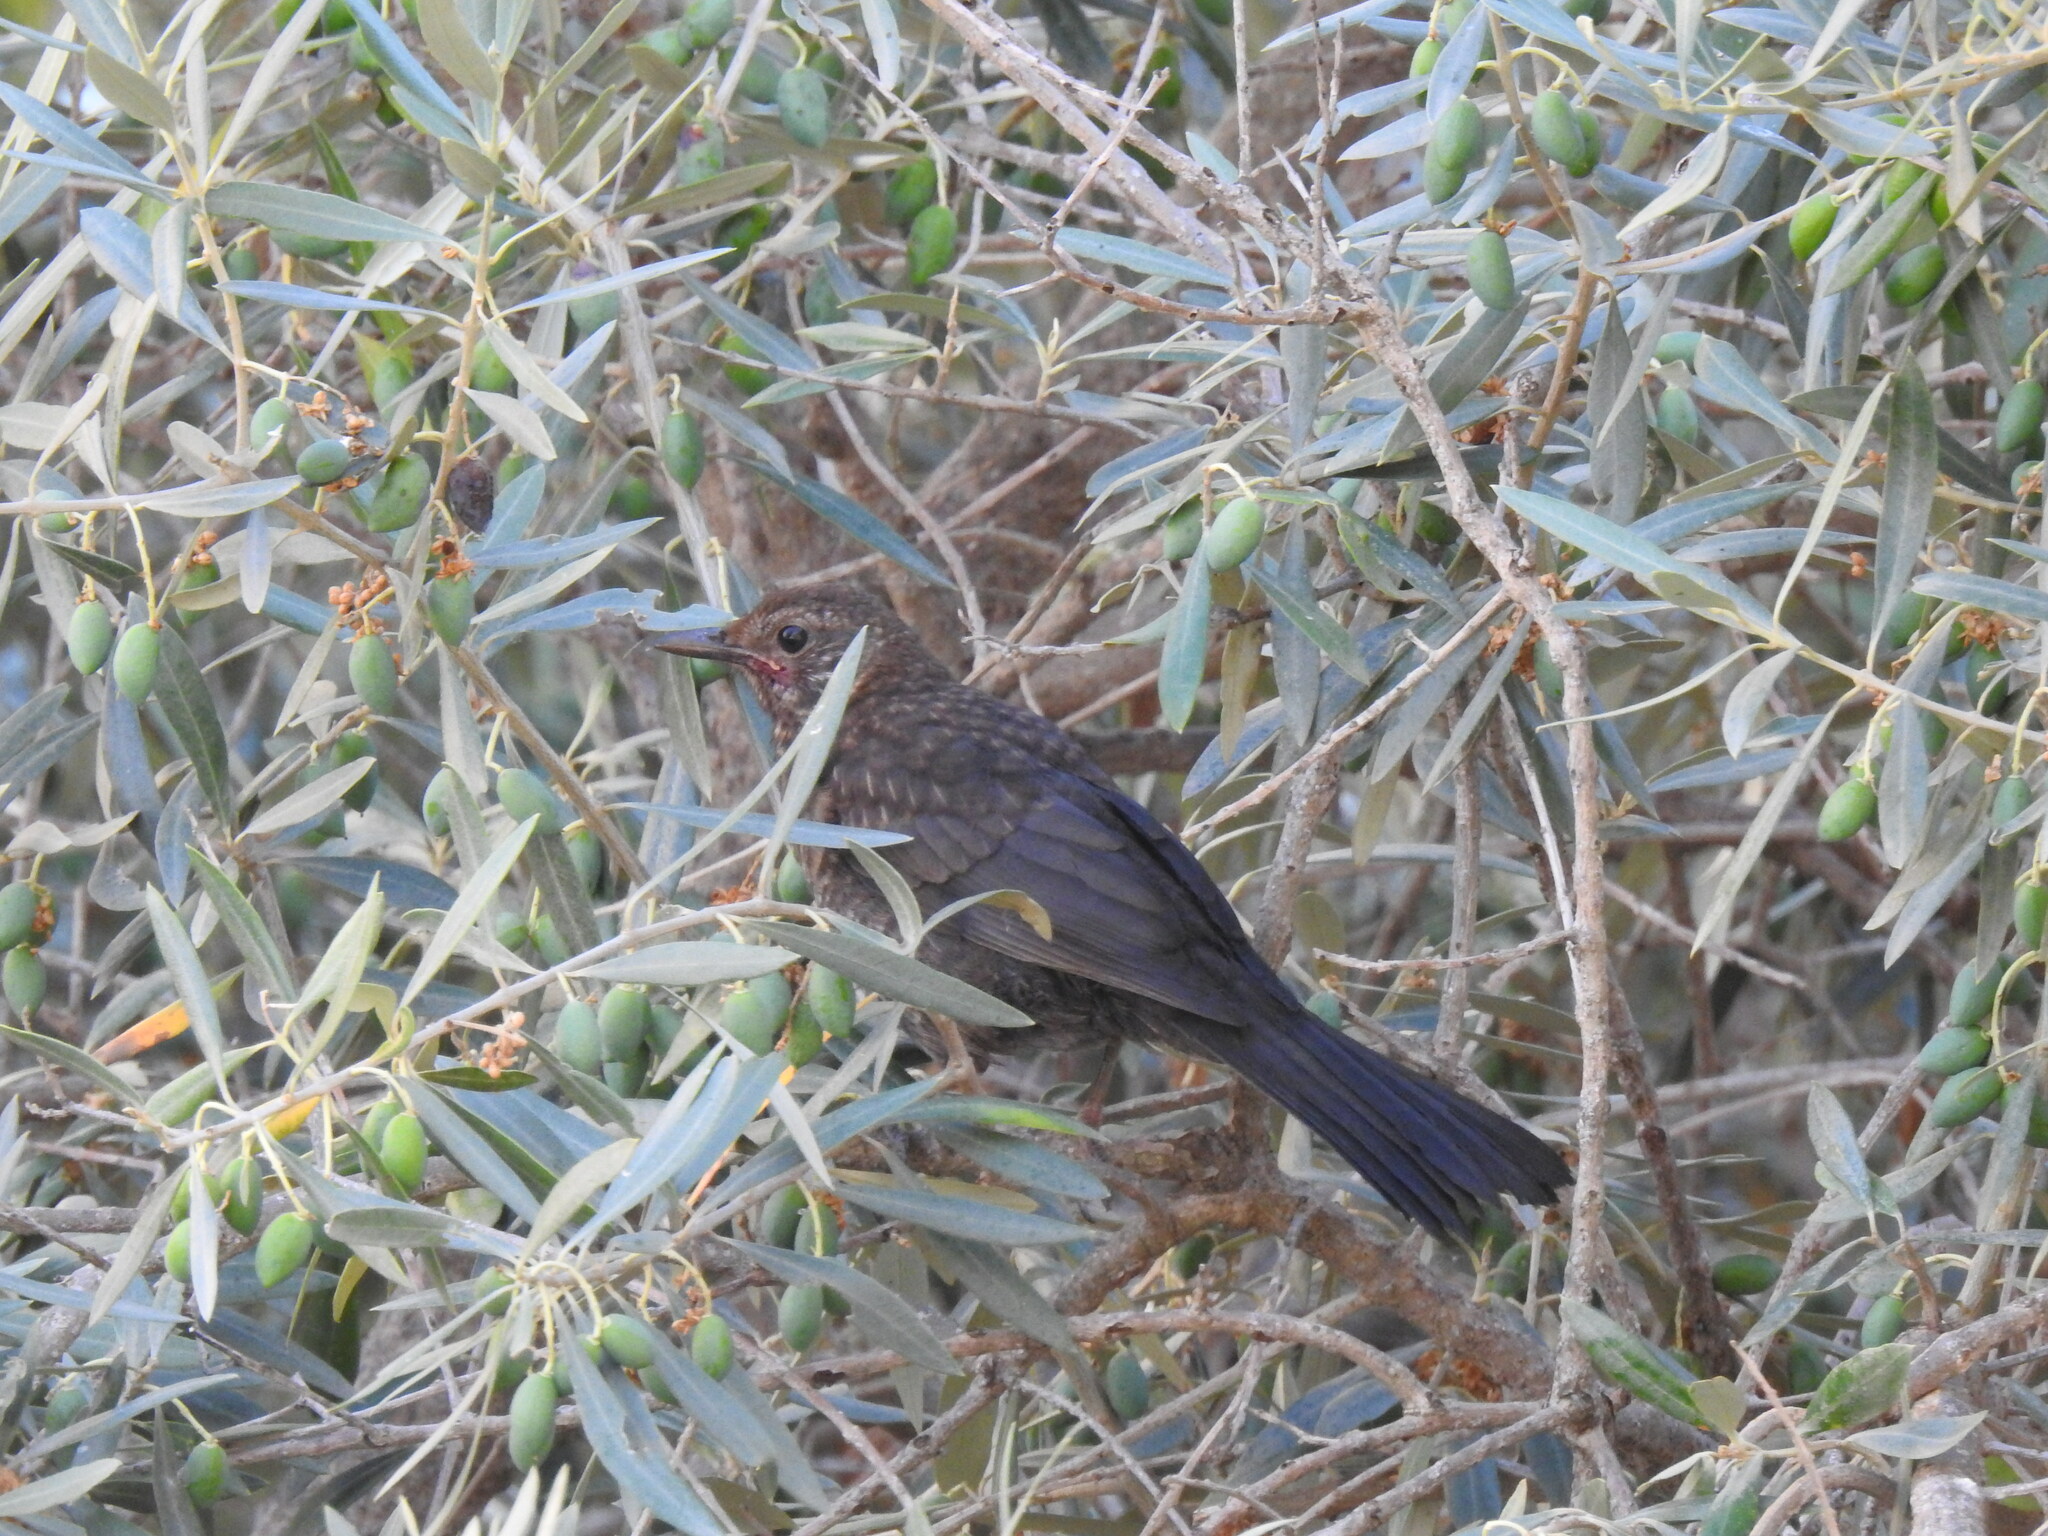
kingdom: Animalia
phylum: Chordata
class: Aves
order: Passeriformes
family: Turdidae
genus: Turdus
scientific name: Turdus merula
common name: Common blackbird
